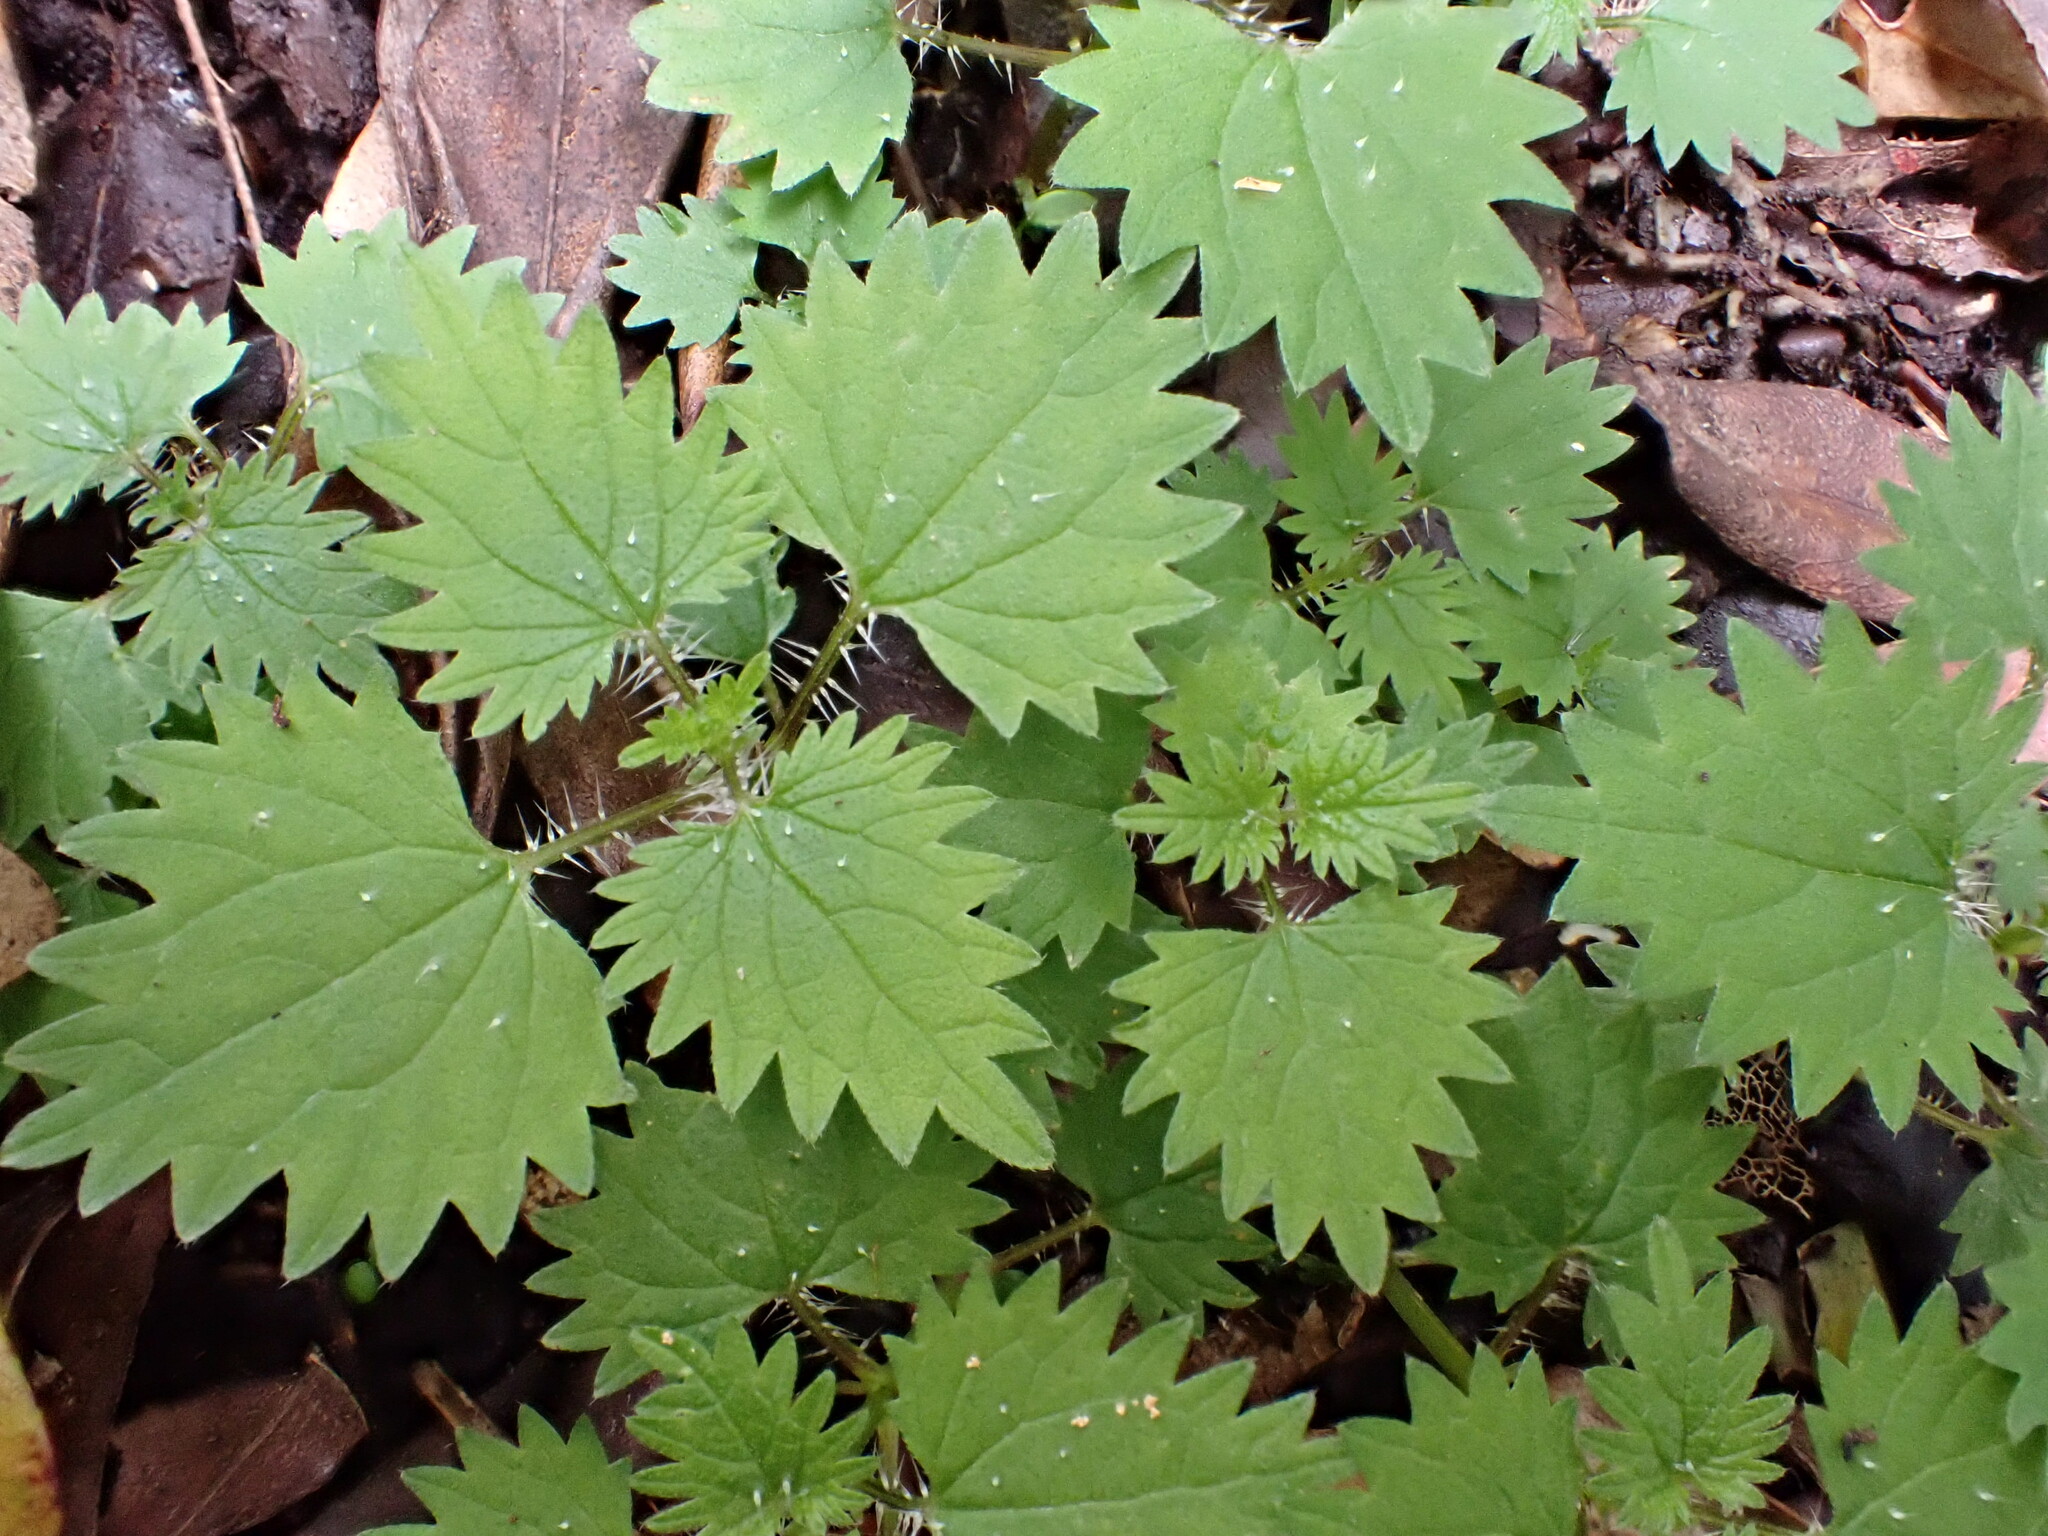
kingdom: Plantae
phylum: Tracheophyta
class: Magnoliopsida
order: Rosales
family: Urticaceae
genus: Urtica
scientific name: Urtica sykesii
